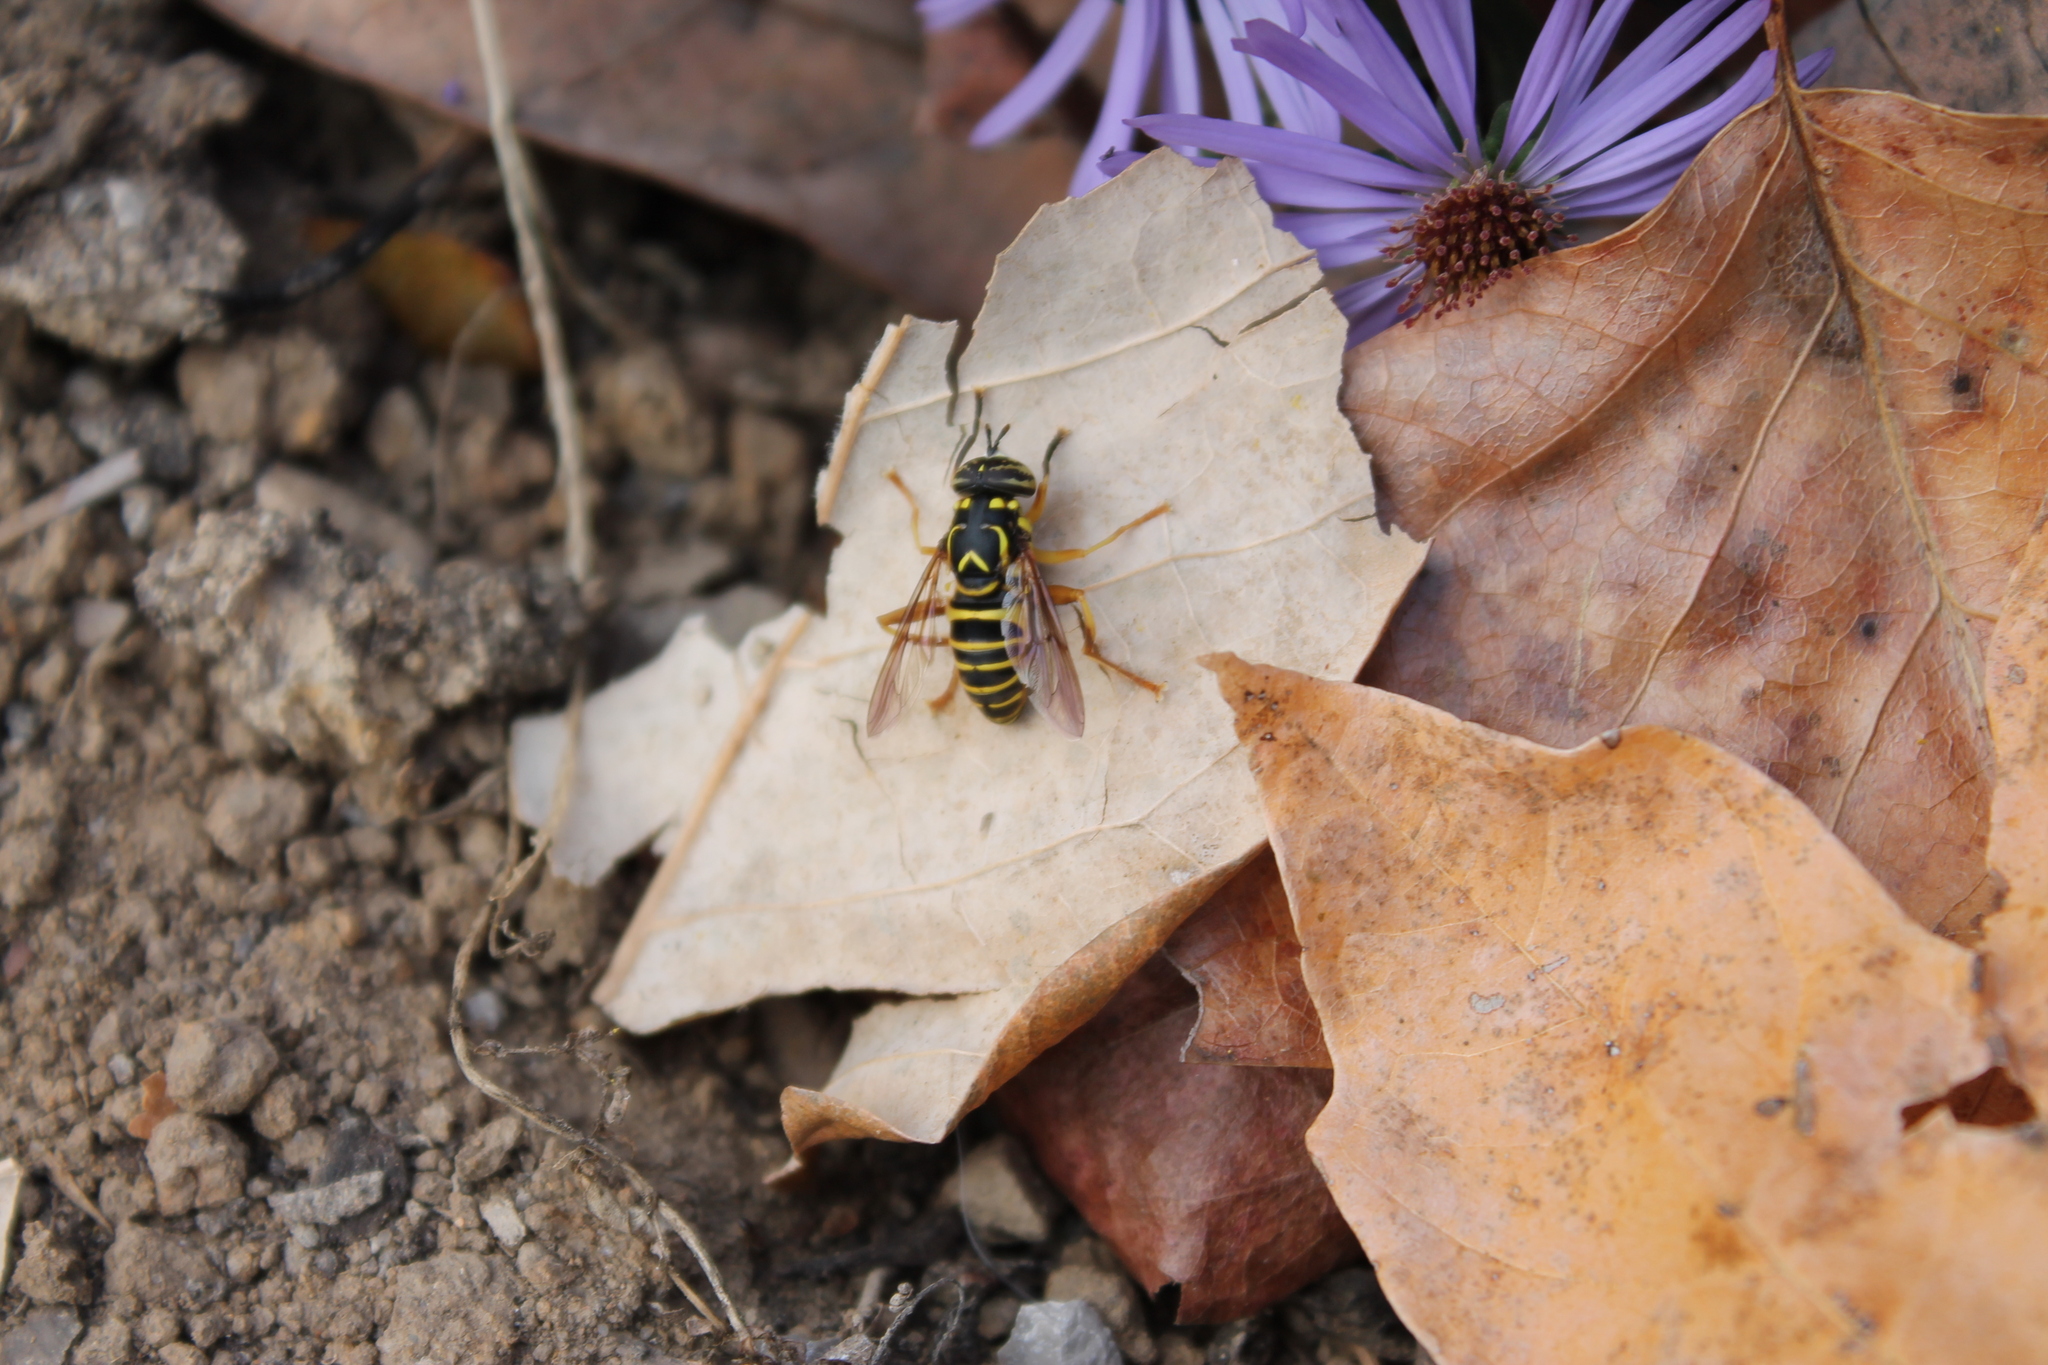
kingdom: Animalia
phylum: Arthropoda
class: Insecta
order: Diptera
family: Syrphidae
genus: Spilomyia
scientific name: Spilomyia longicornis
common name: Eastern hornet fly
